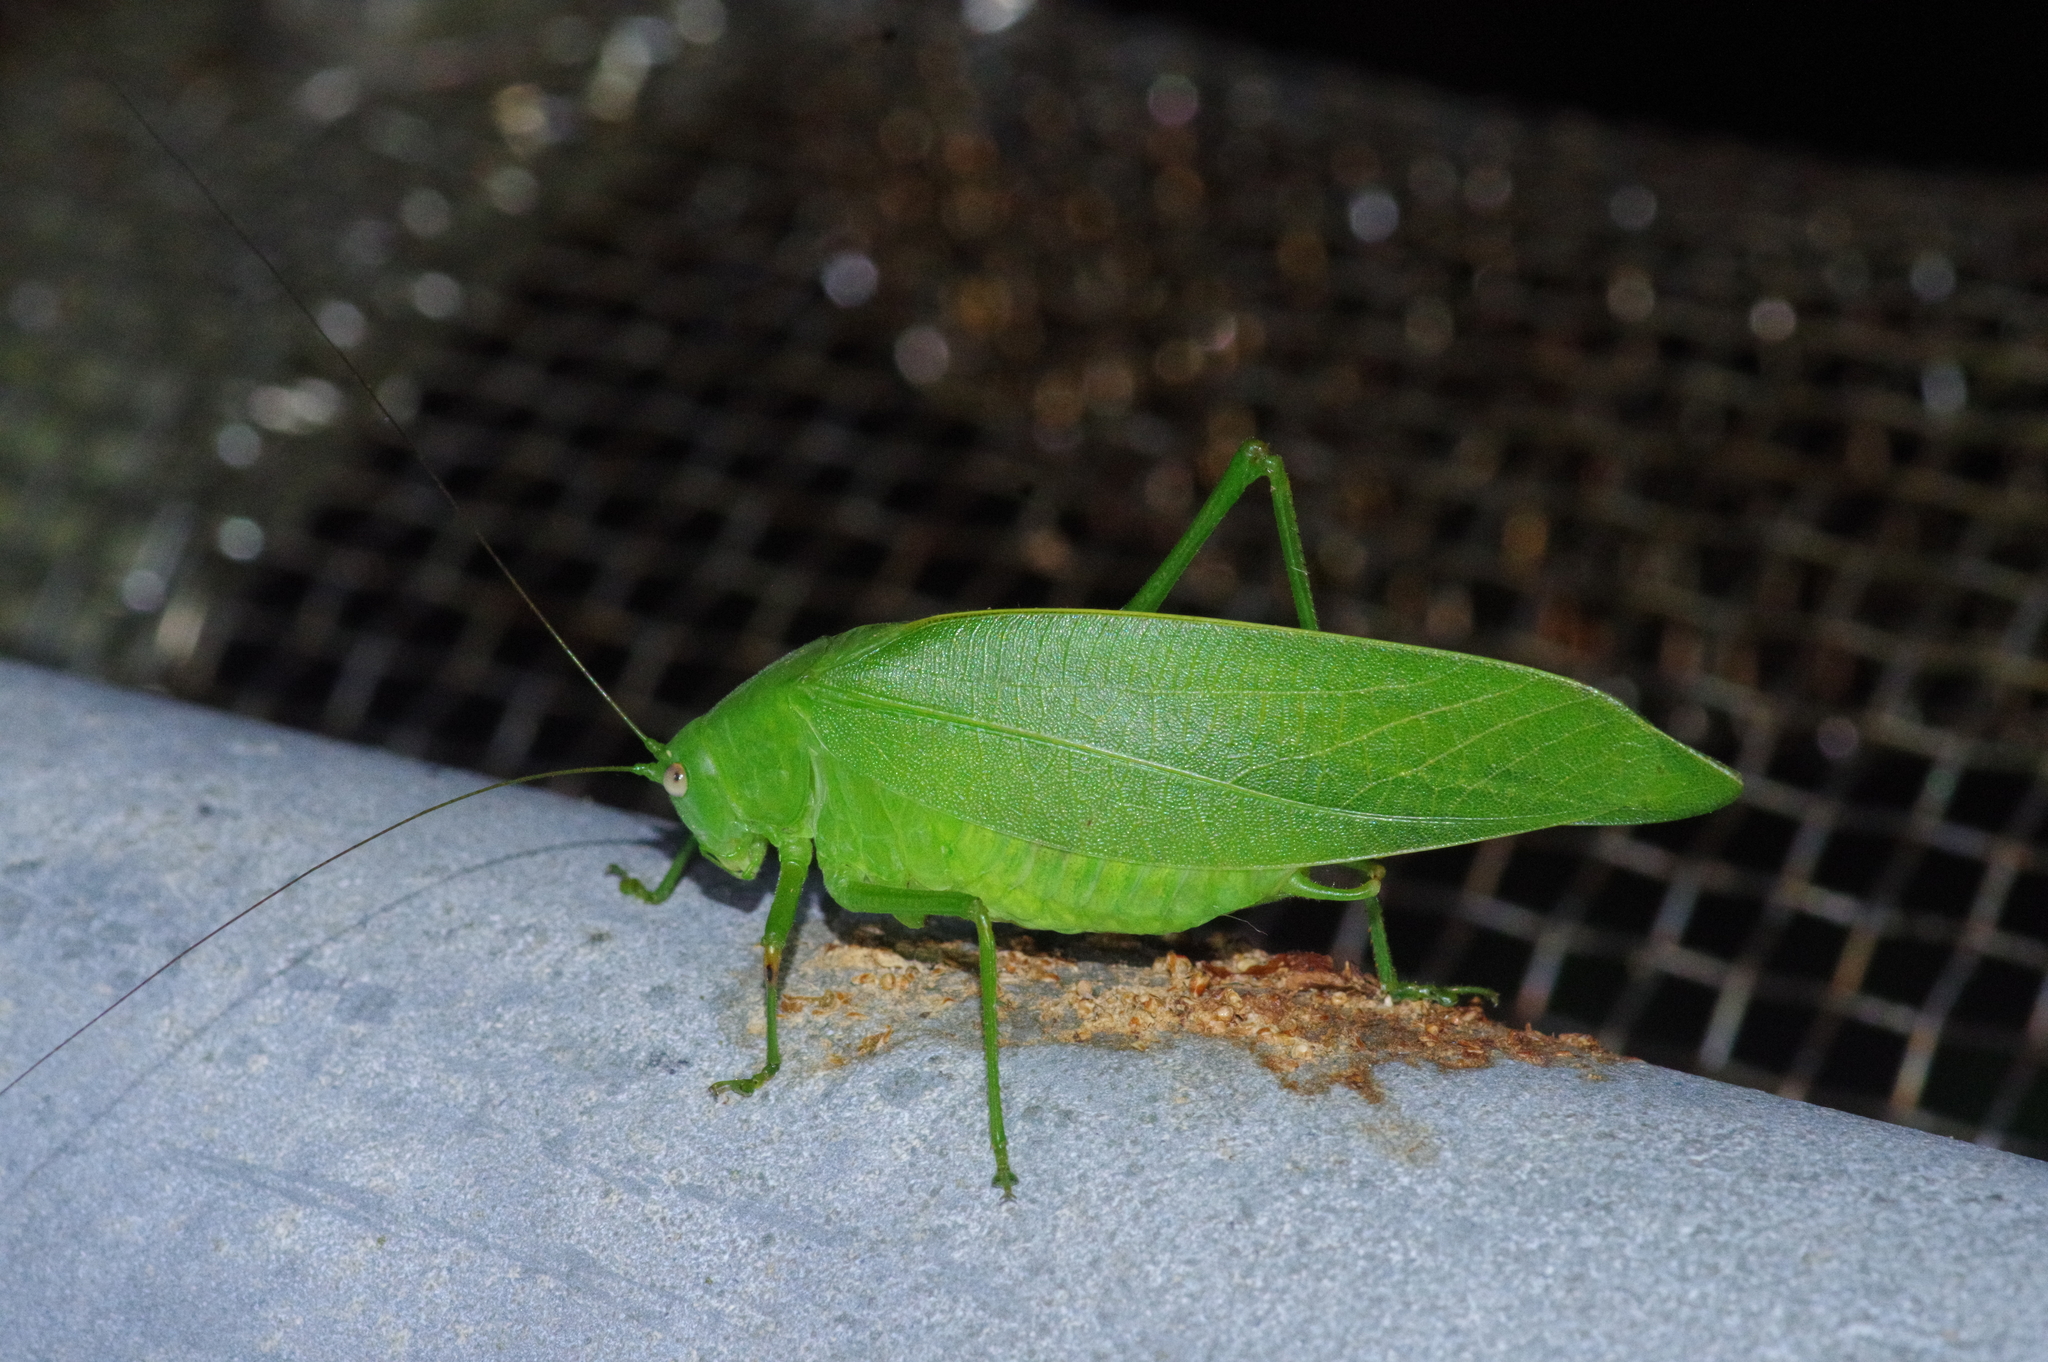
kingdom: Animalia
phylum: Arthropoda
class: Insecta
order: Orthoptera
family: Tettigoniidae
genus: Phaulula
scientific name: Phaulula daitoensis
